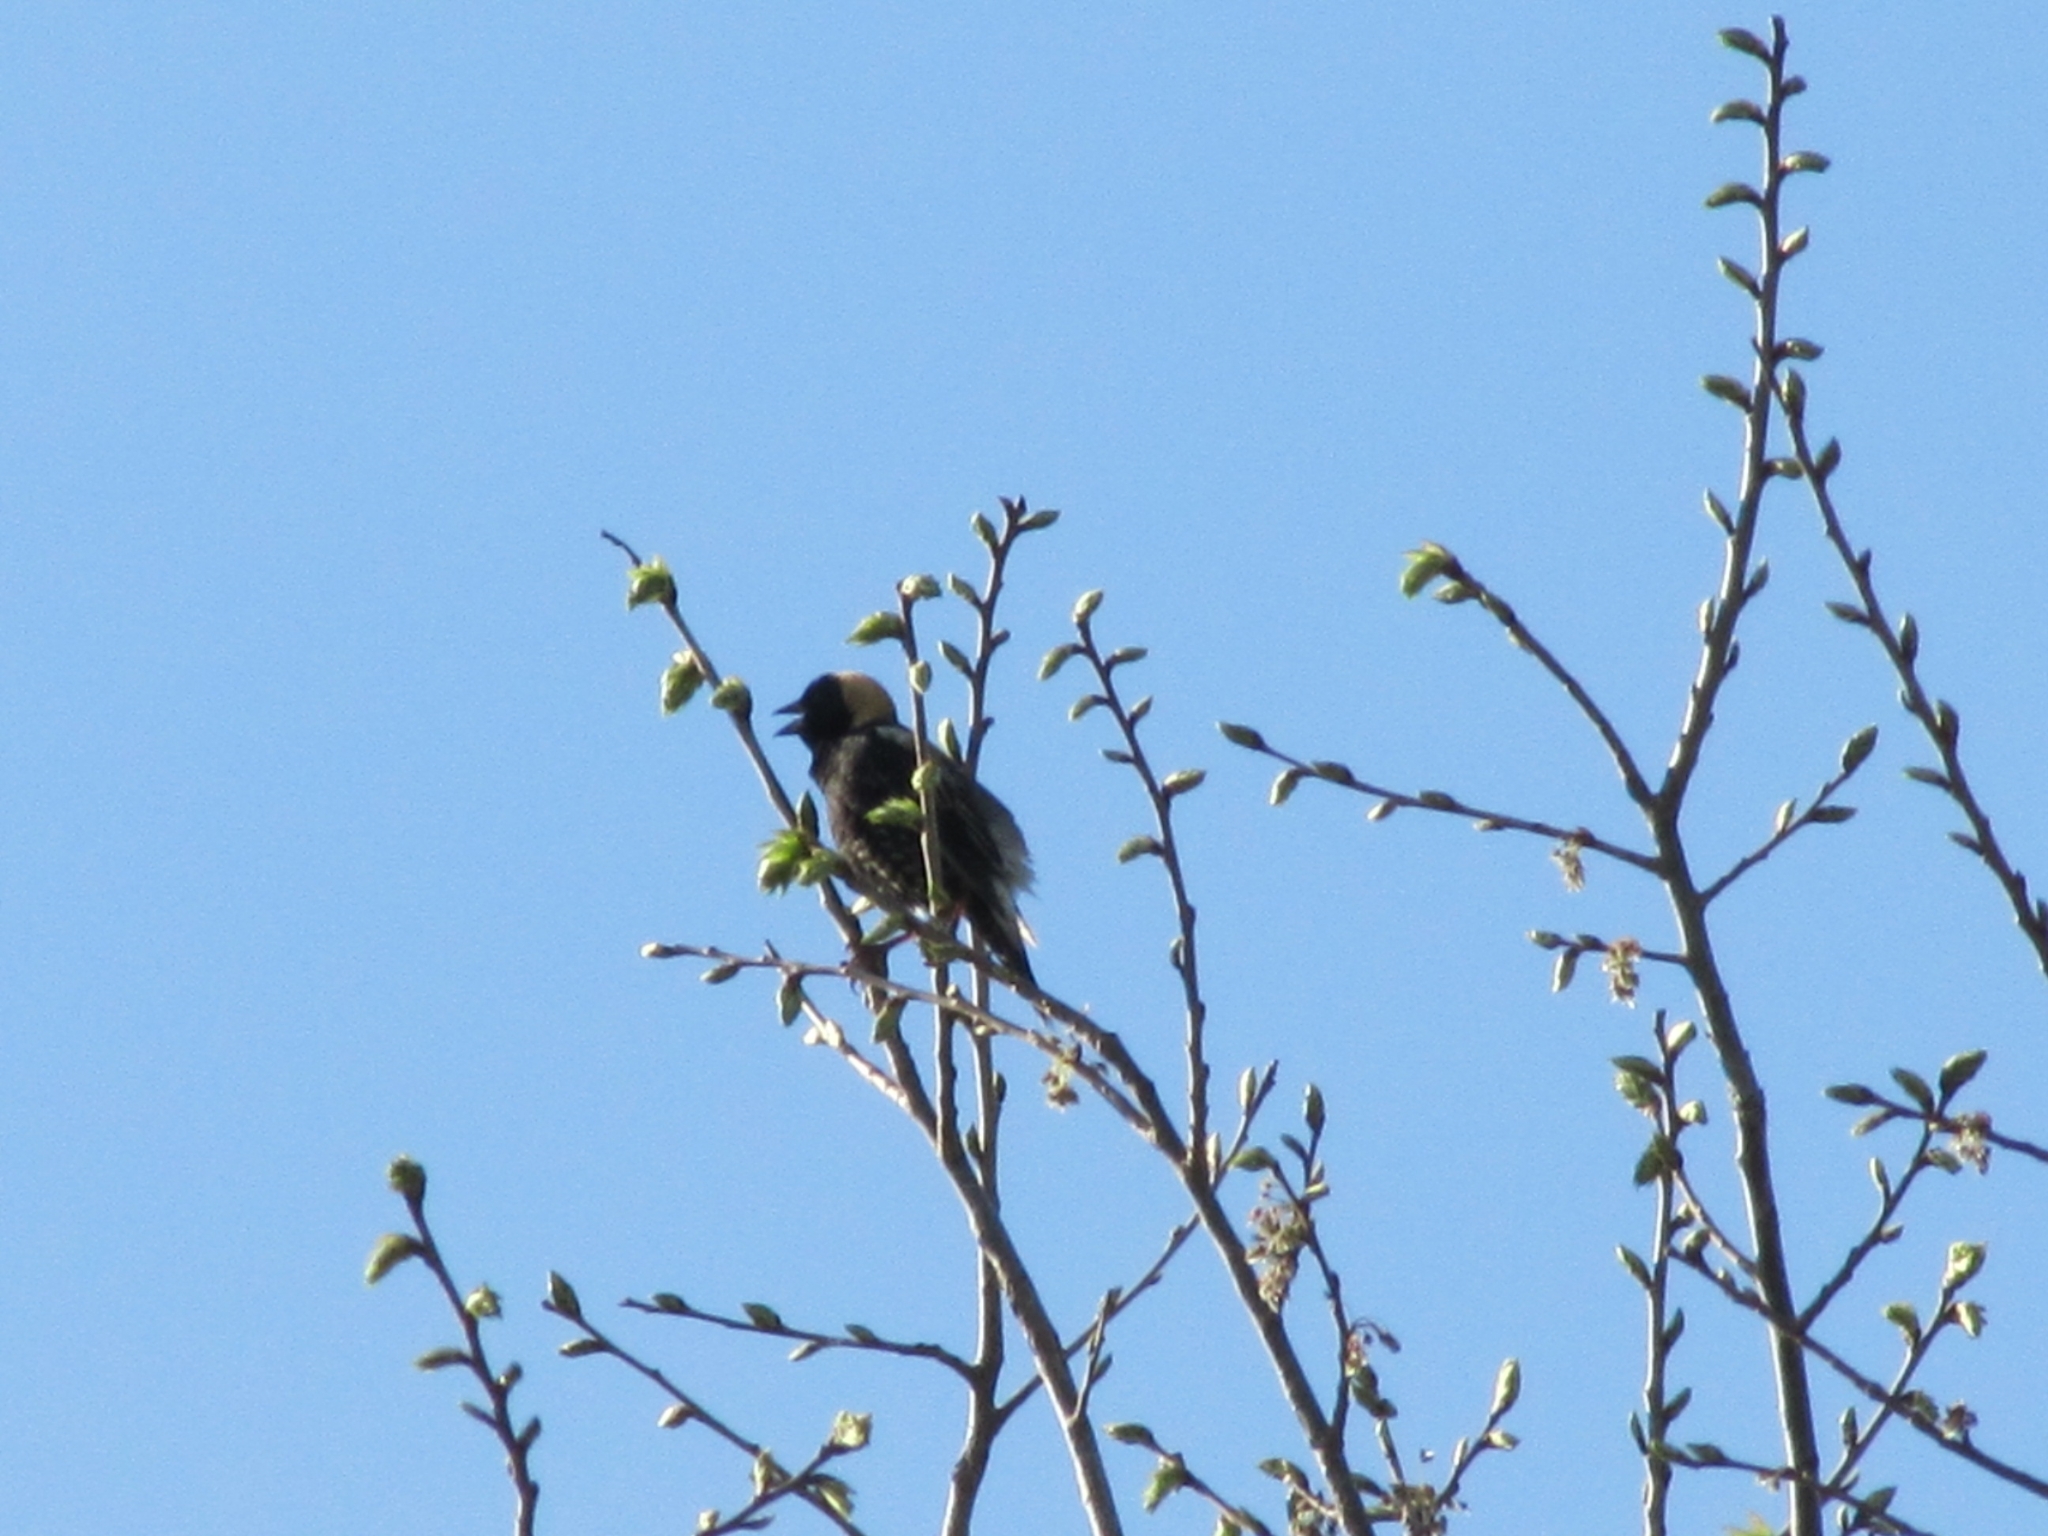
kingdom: Animalia
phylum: Chordata
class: Aves
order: Passeriformes
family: Icteridae
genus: Dolichonyx
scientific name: Dolichonyx oryzivorus
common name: Bobolink
